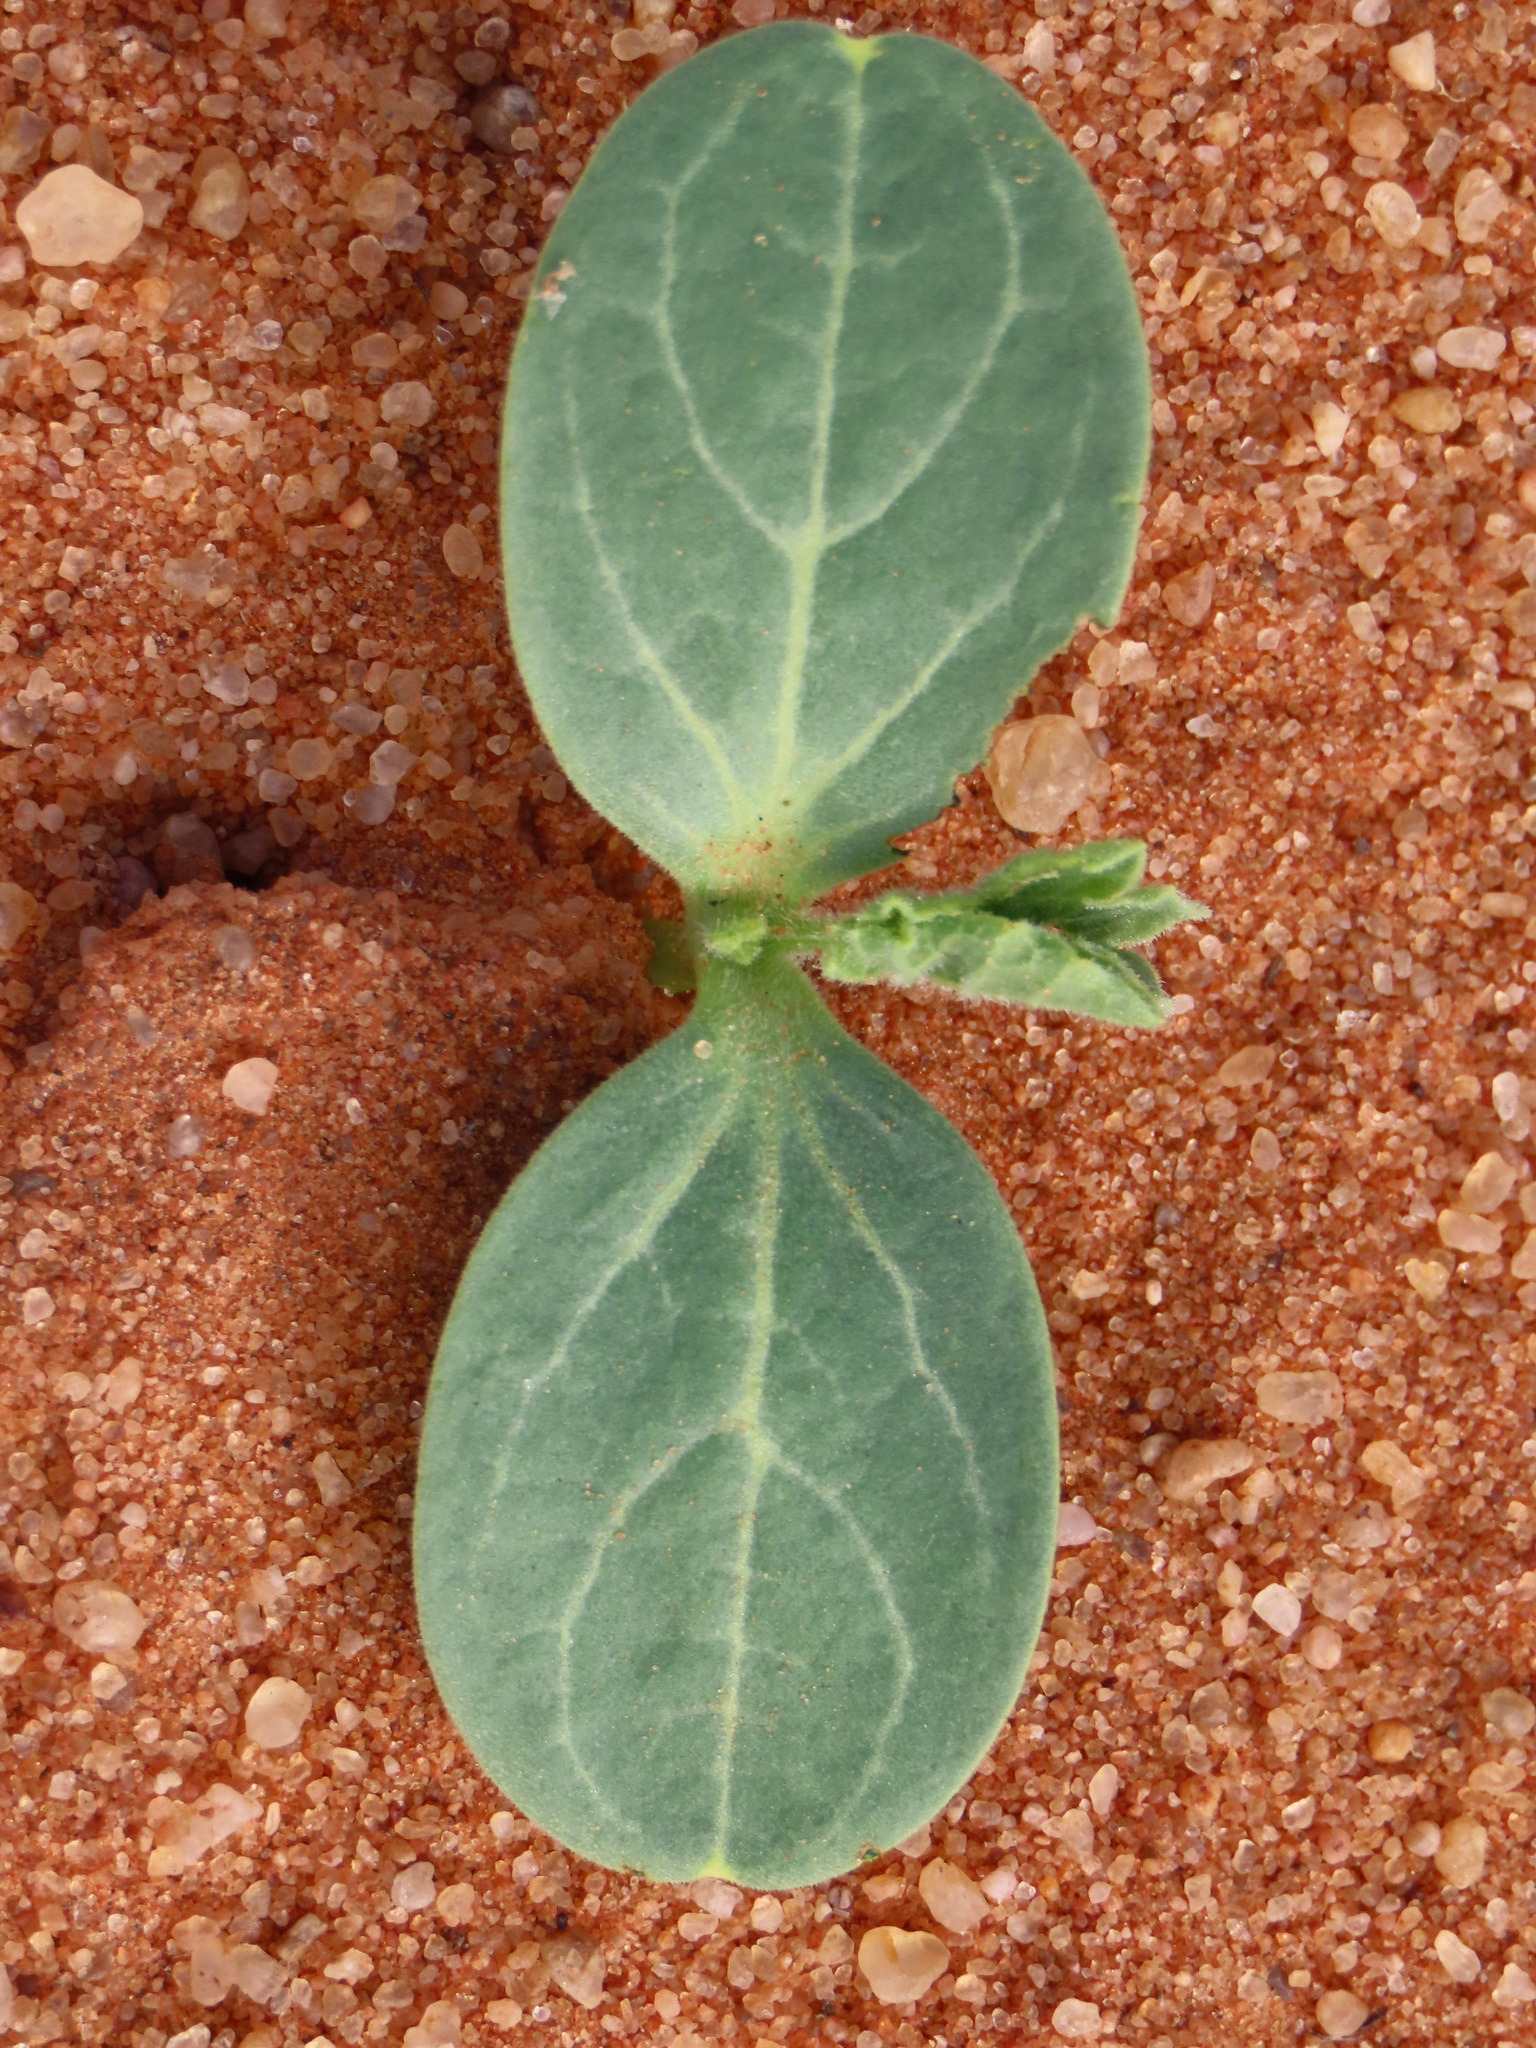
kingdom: Plantae
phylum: Tracheophyta
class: Magnoliopsida
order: Cucurbitales
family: Cucurbitaceae
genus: Citrullus
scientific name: Citrullus amarus
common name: Fodder-melon
